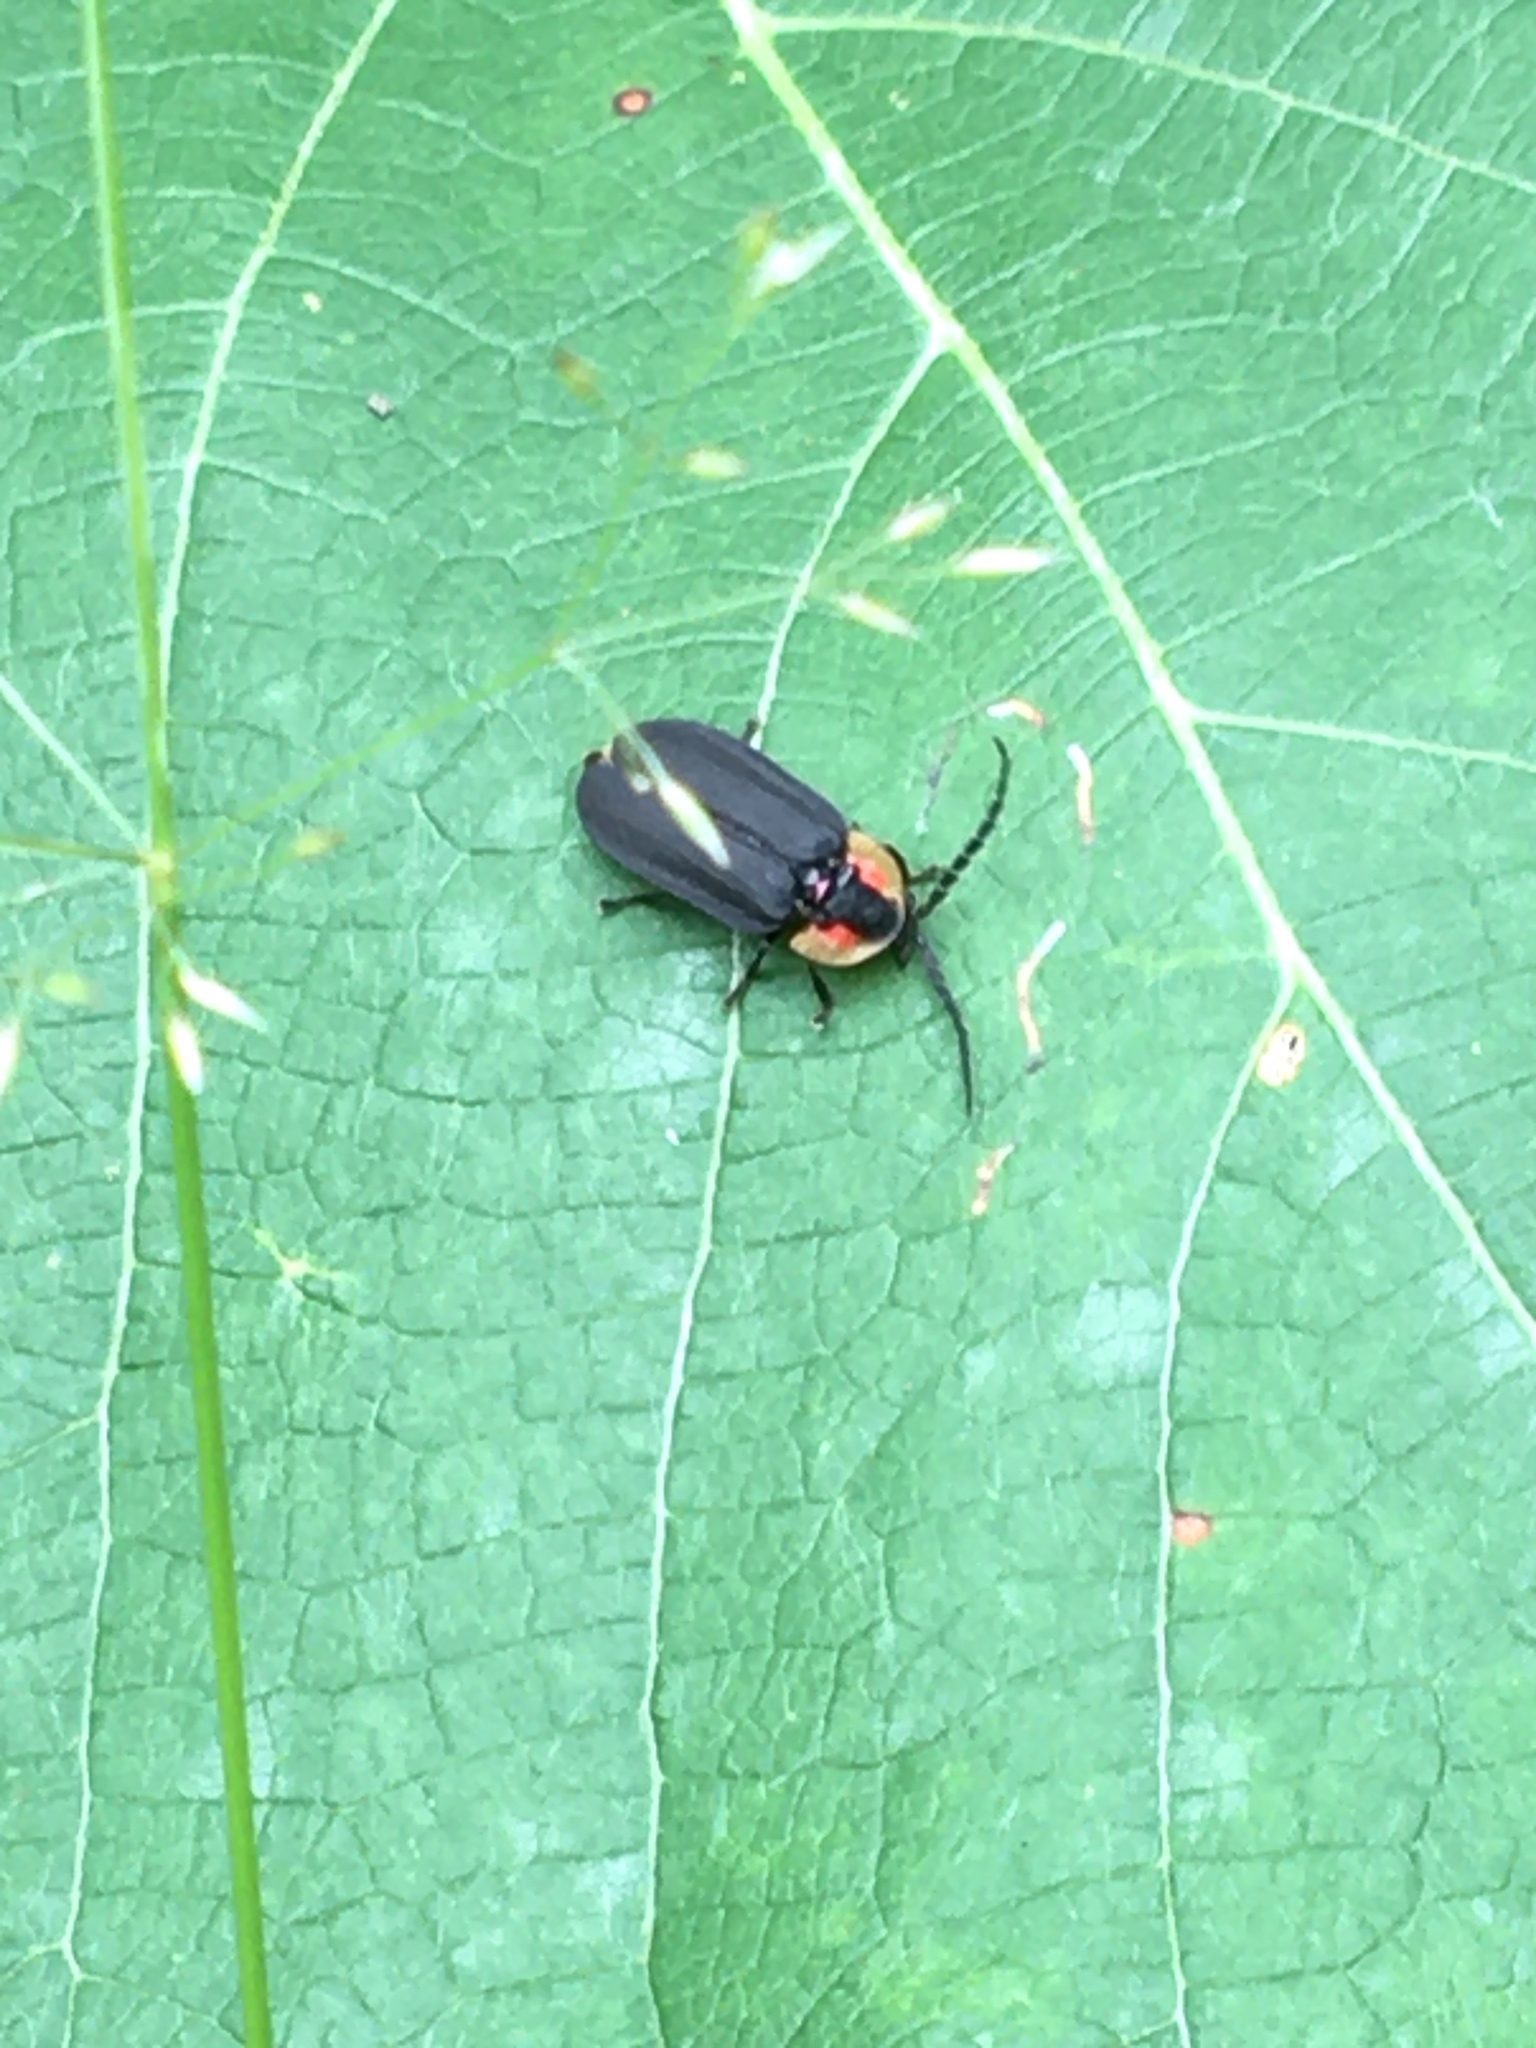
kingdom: Animalia
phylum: Arthropoda
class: Insecta
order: Coleoptera
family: Lampyridae
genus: Lucidota
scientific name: Lucidota atra
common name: Black firefly
